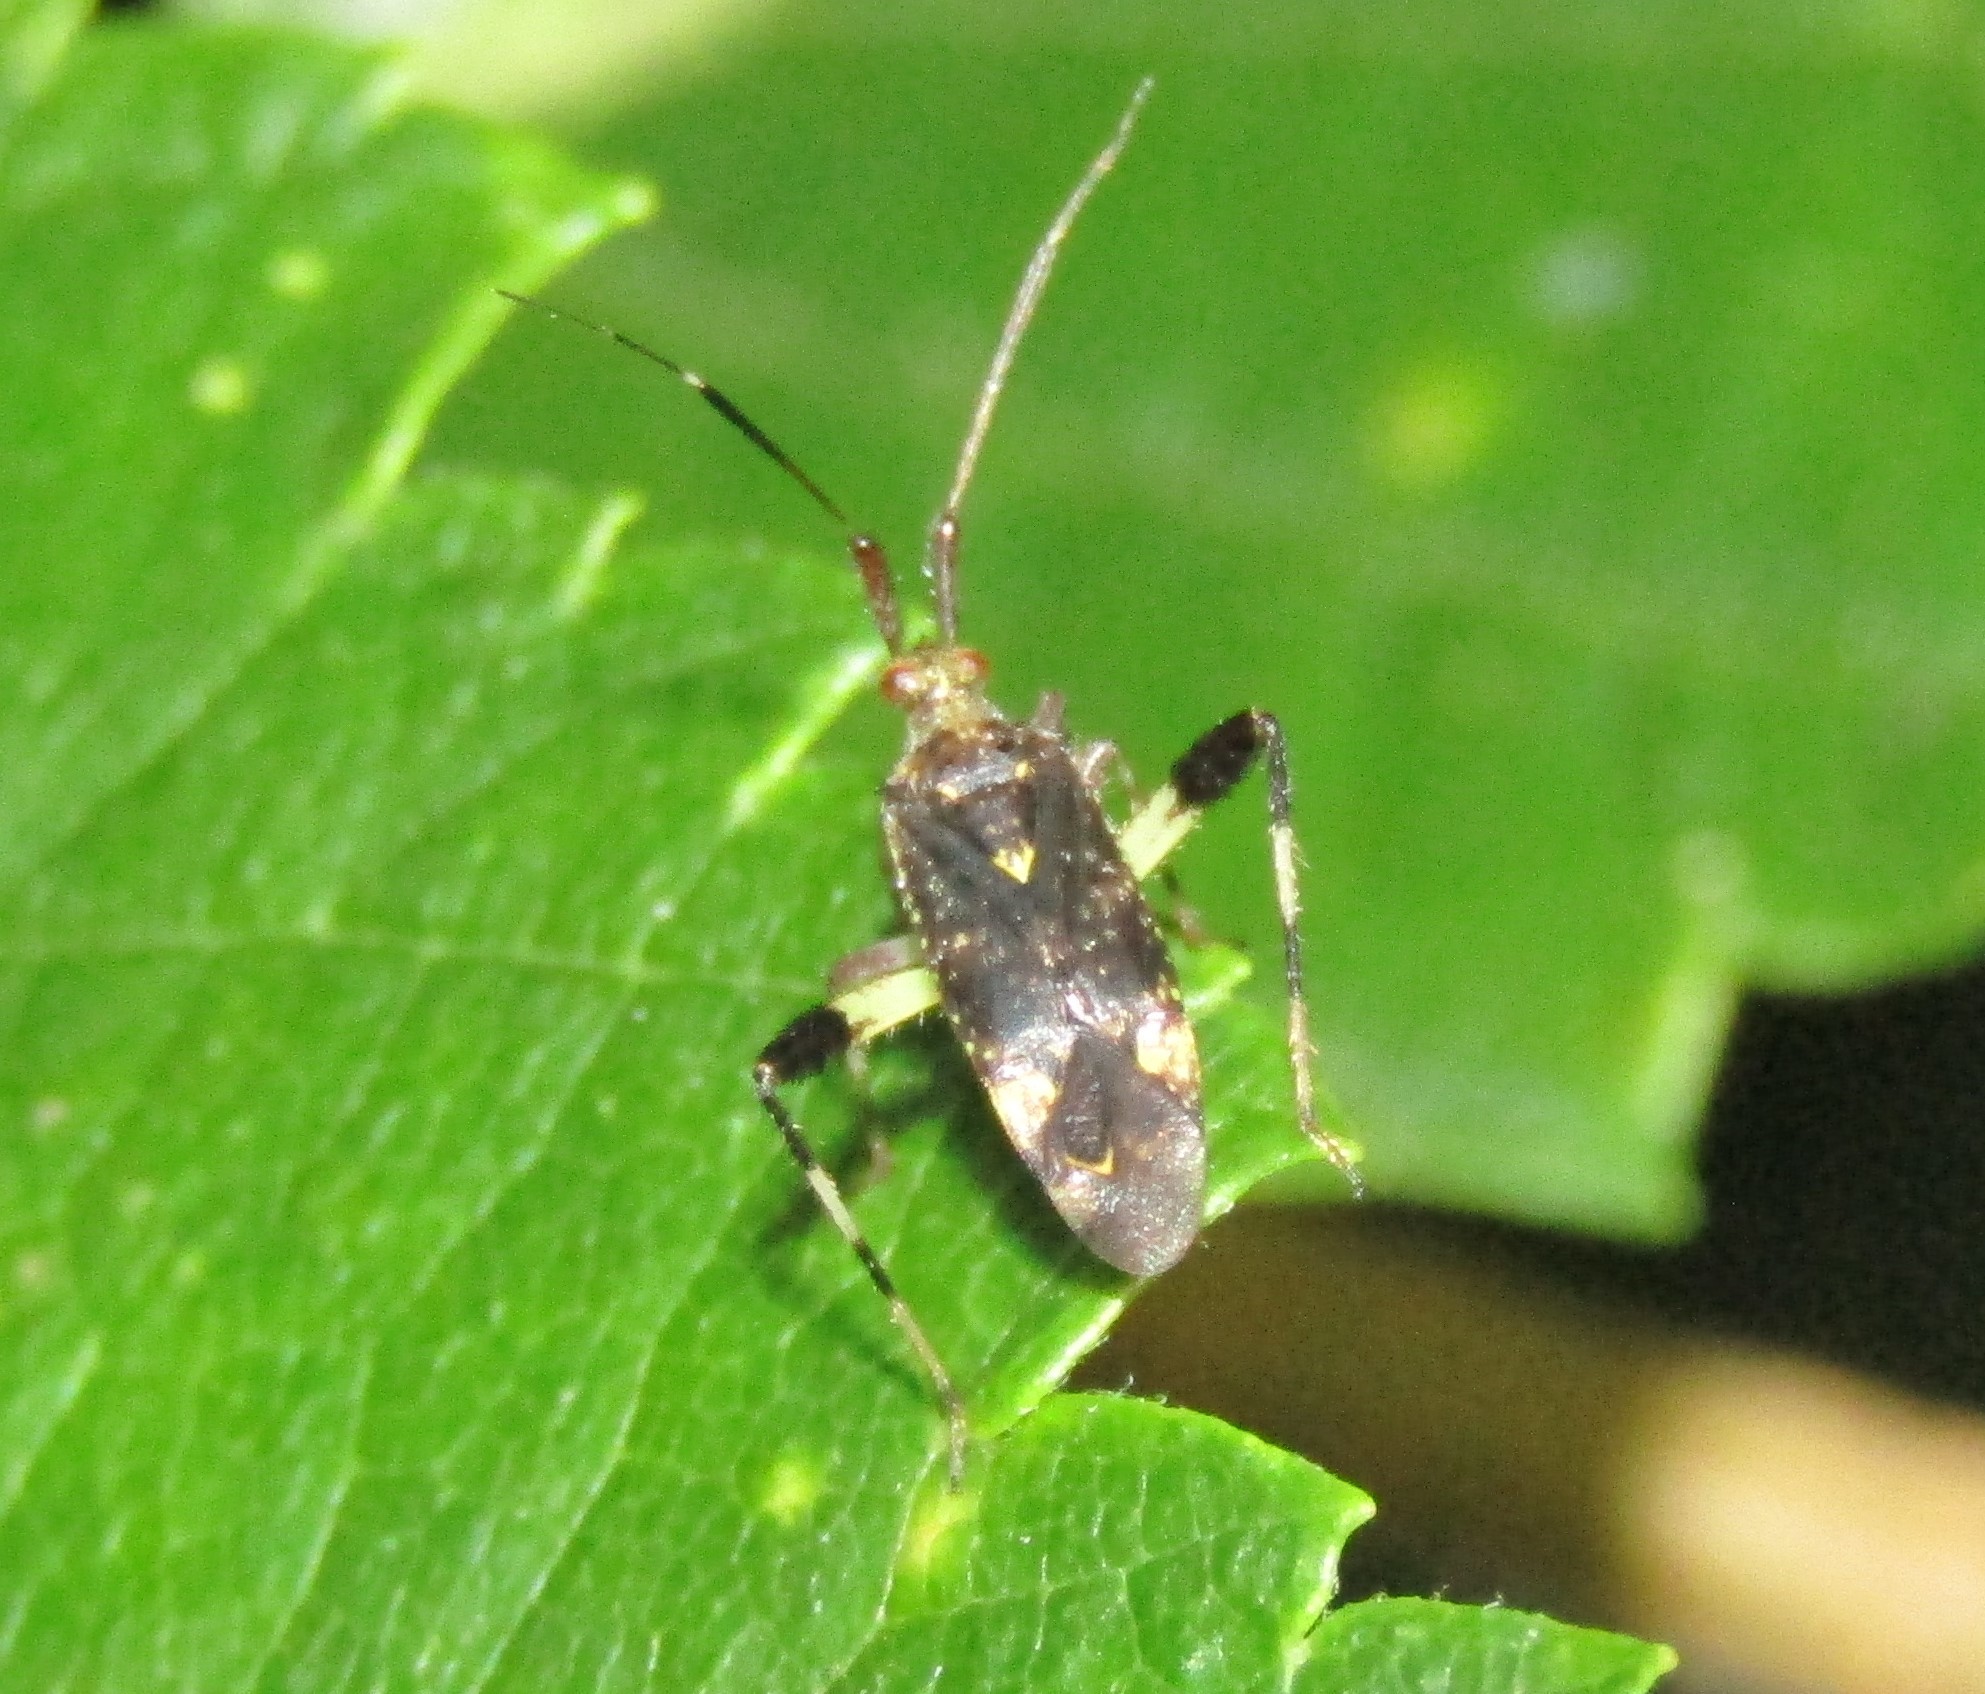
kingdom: Animalia
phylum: Arthropoda
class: Insecta
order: Hemiptera
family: Miridae
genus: Neurocolpus
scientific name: Neurocolpus jessiae
